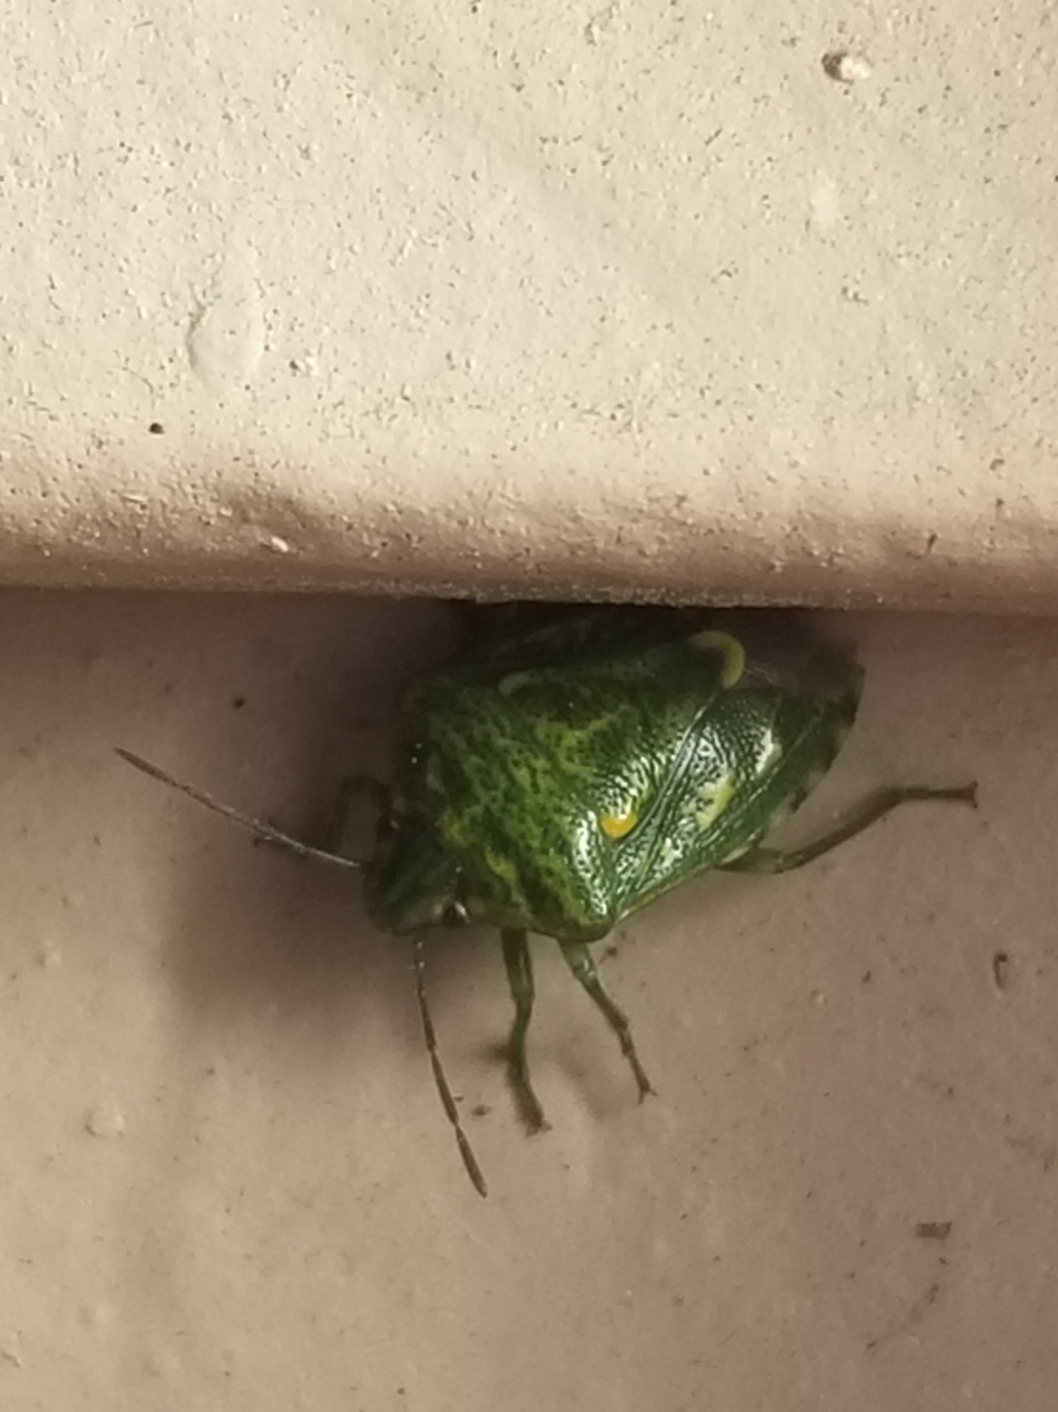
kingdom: Animalia
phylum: Arthropoda
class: Insecta
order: Hemiptera
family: Pentatomidae
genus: Banasa
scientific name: Banasa euchlora
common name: Cedar berry bug
